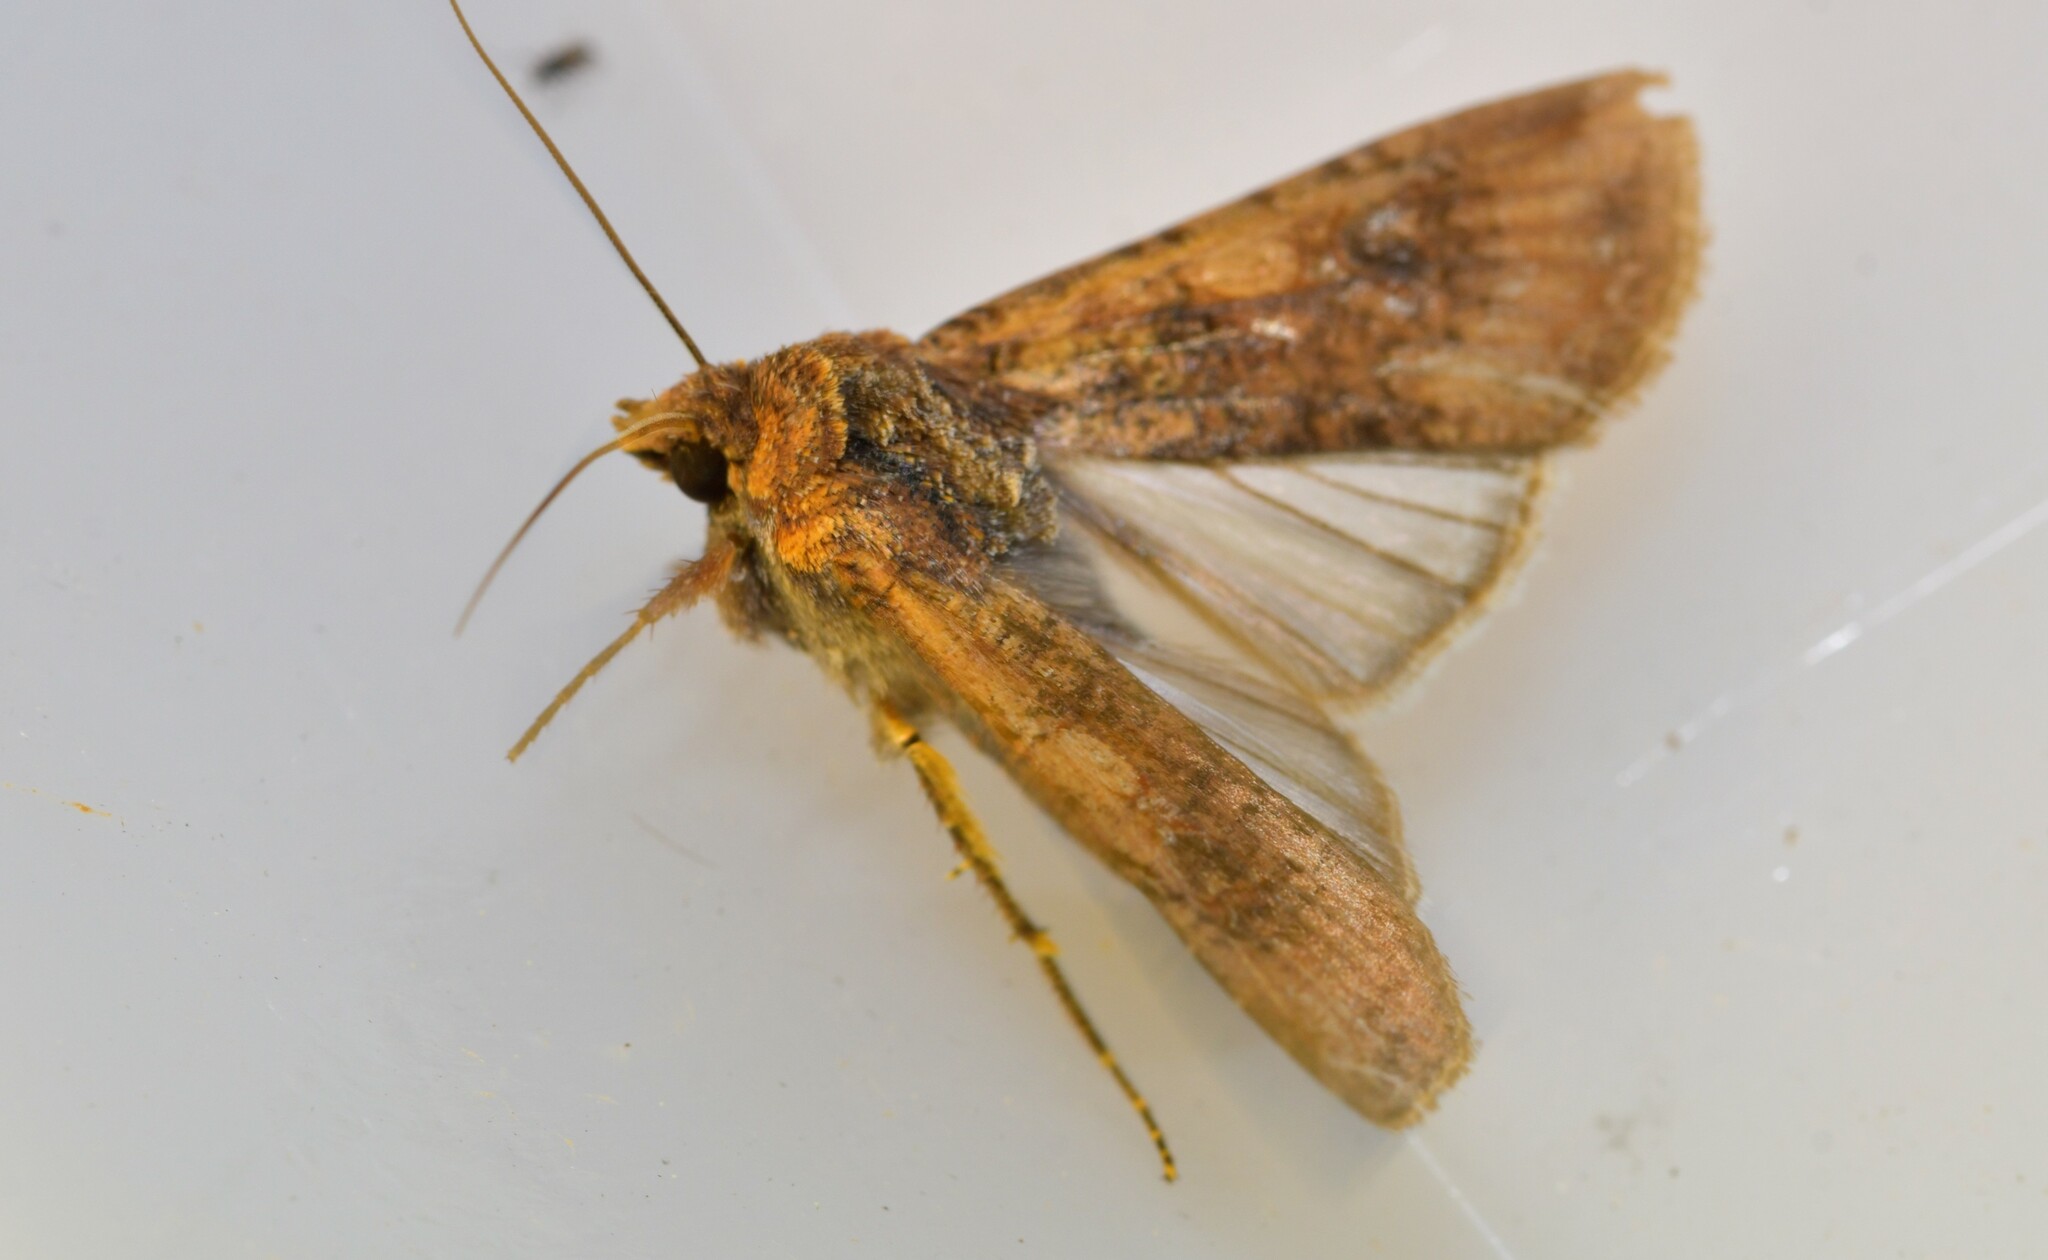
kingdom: Animalia
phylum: Arthropoda
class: Insecta
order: Lepidoptera
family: Noctuidae
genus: Peridroma
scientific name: Peridroma saucia
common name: Pearly underwing
